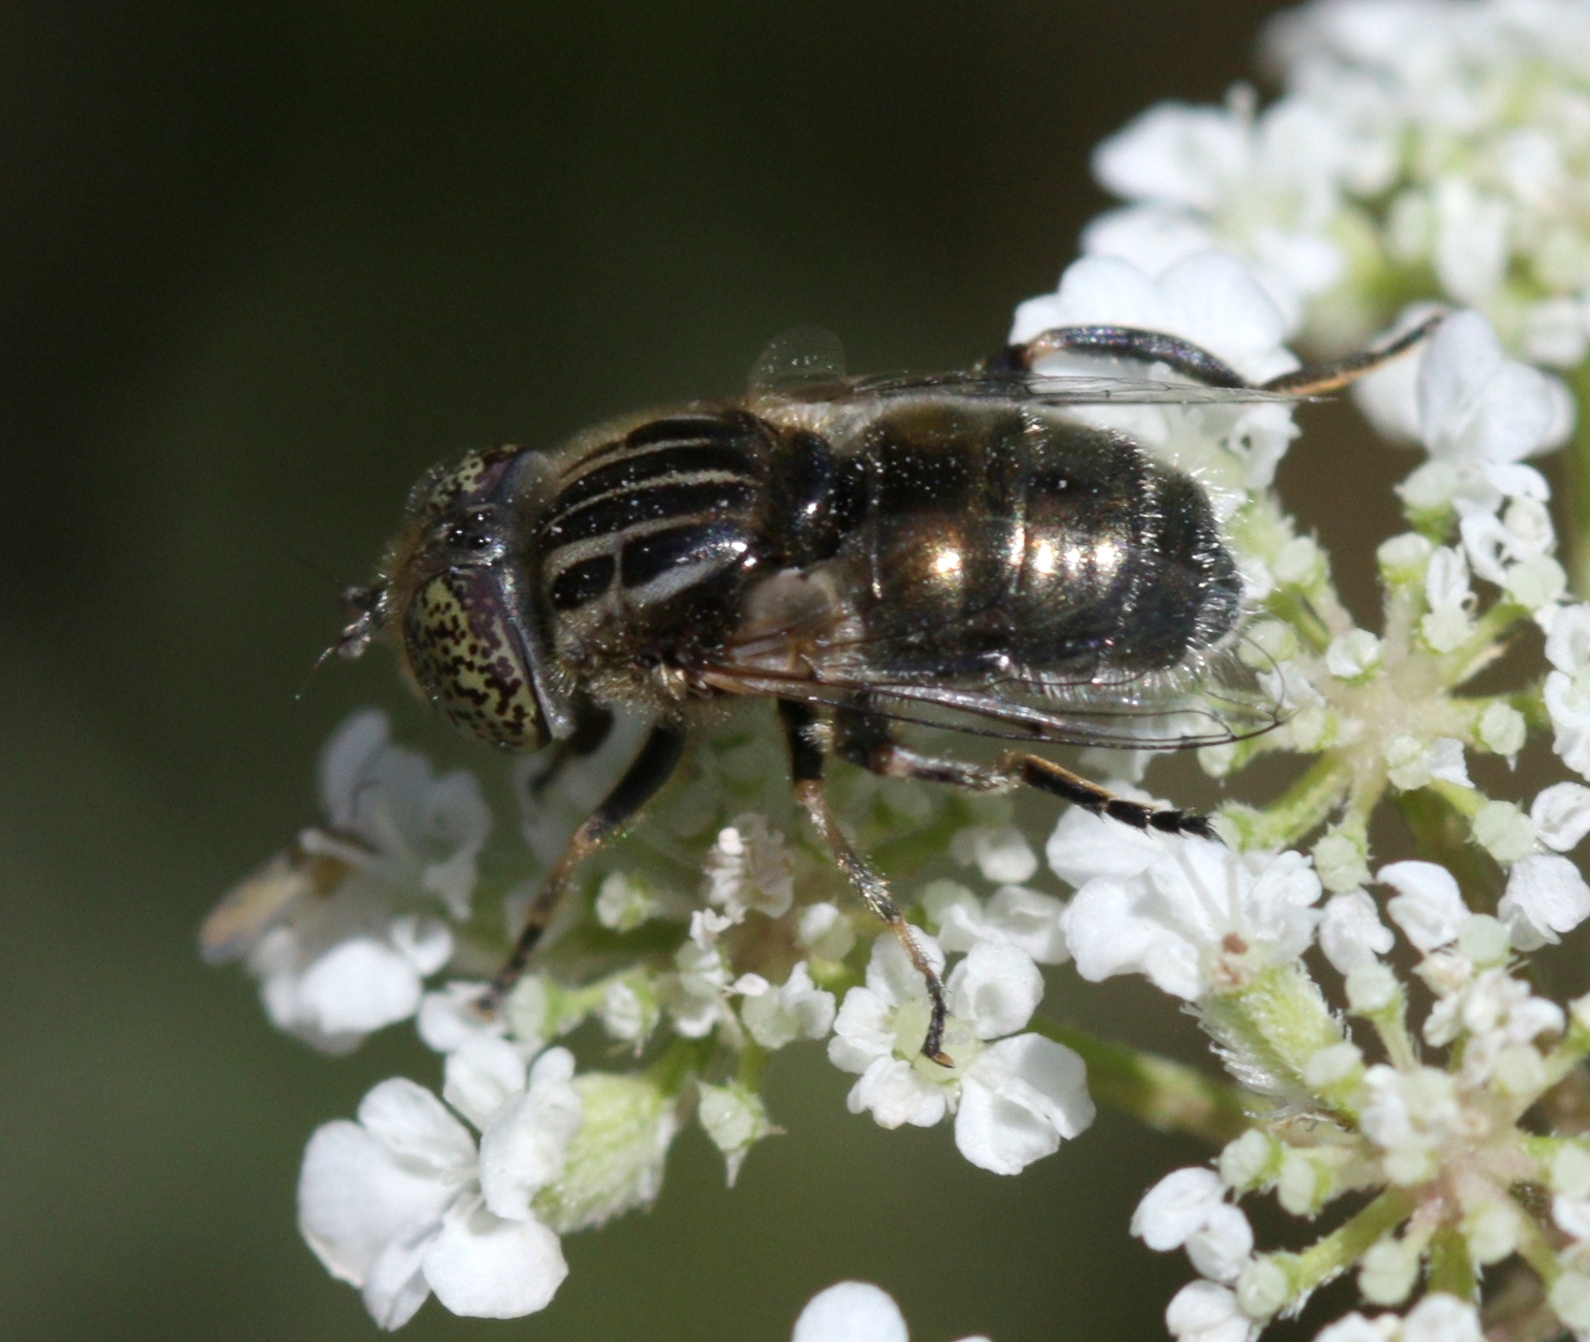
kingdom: Animalia
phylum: Arthropoda
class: Insecta
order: Diptera
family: Syrphidae
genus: Eristalinus
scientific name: Eristalinus aeneus
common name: Syrphid fly
